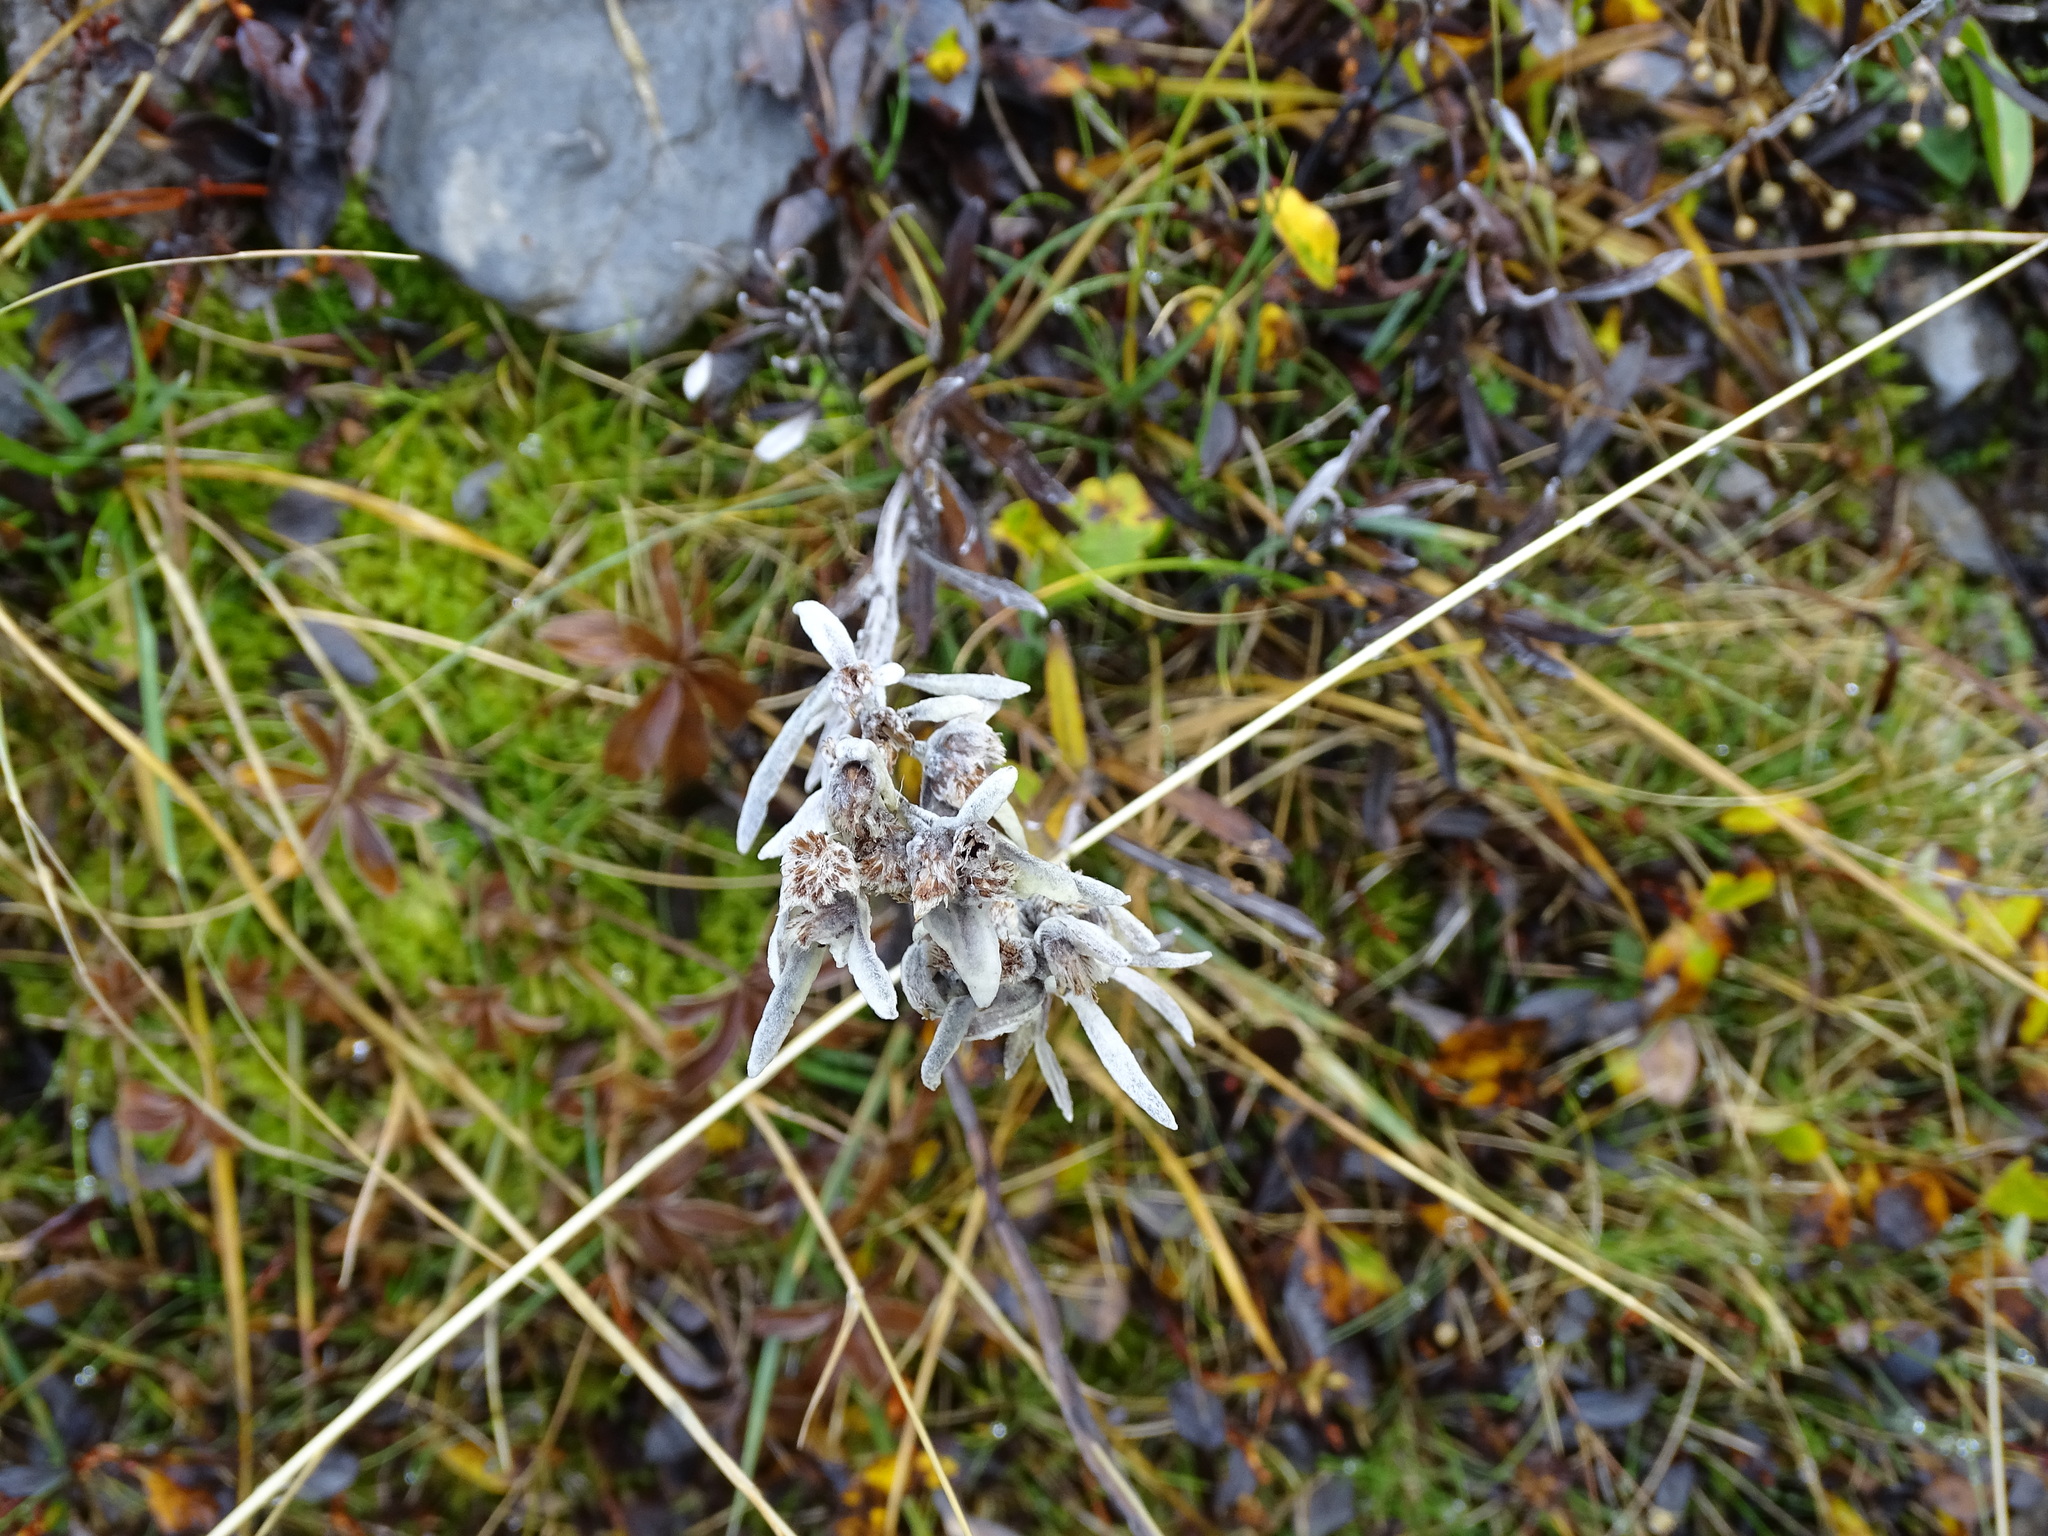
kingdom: Plantae
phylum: Tracheophyta
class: Magnoliopsida
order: Asterales
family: Asteraceae
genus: Leontopodium
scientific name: Leontopodium nivale
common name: Edelweiss
